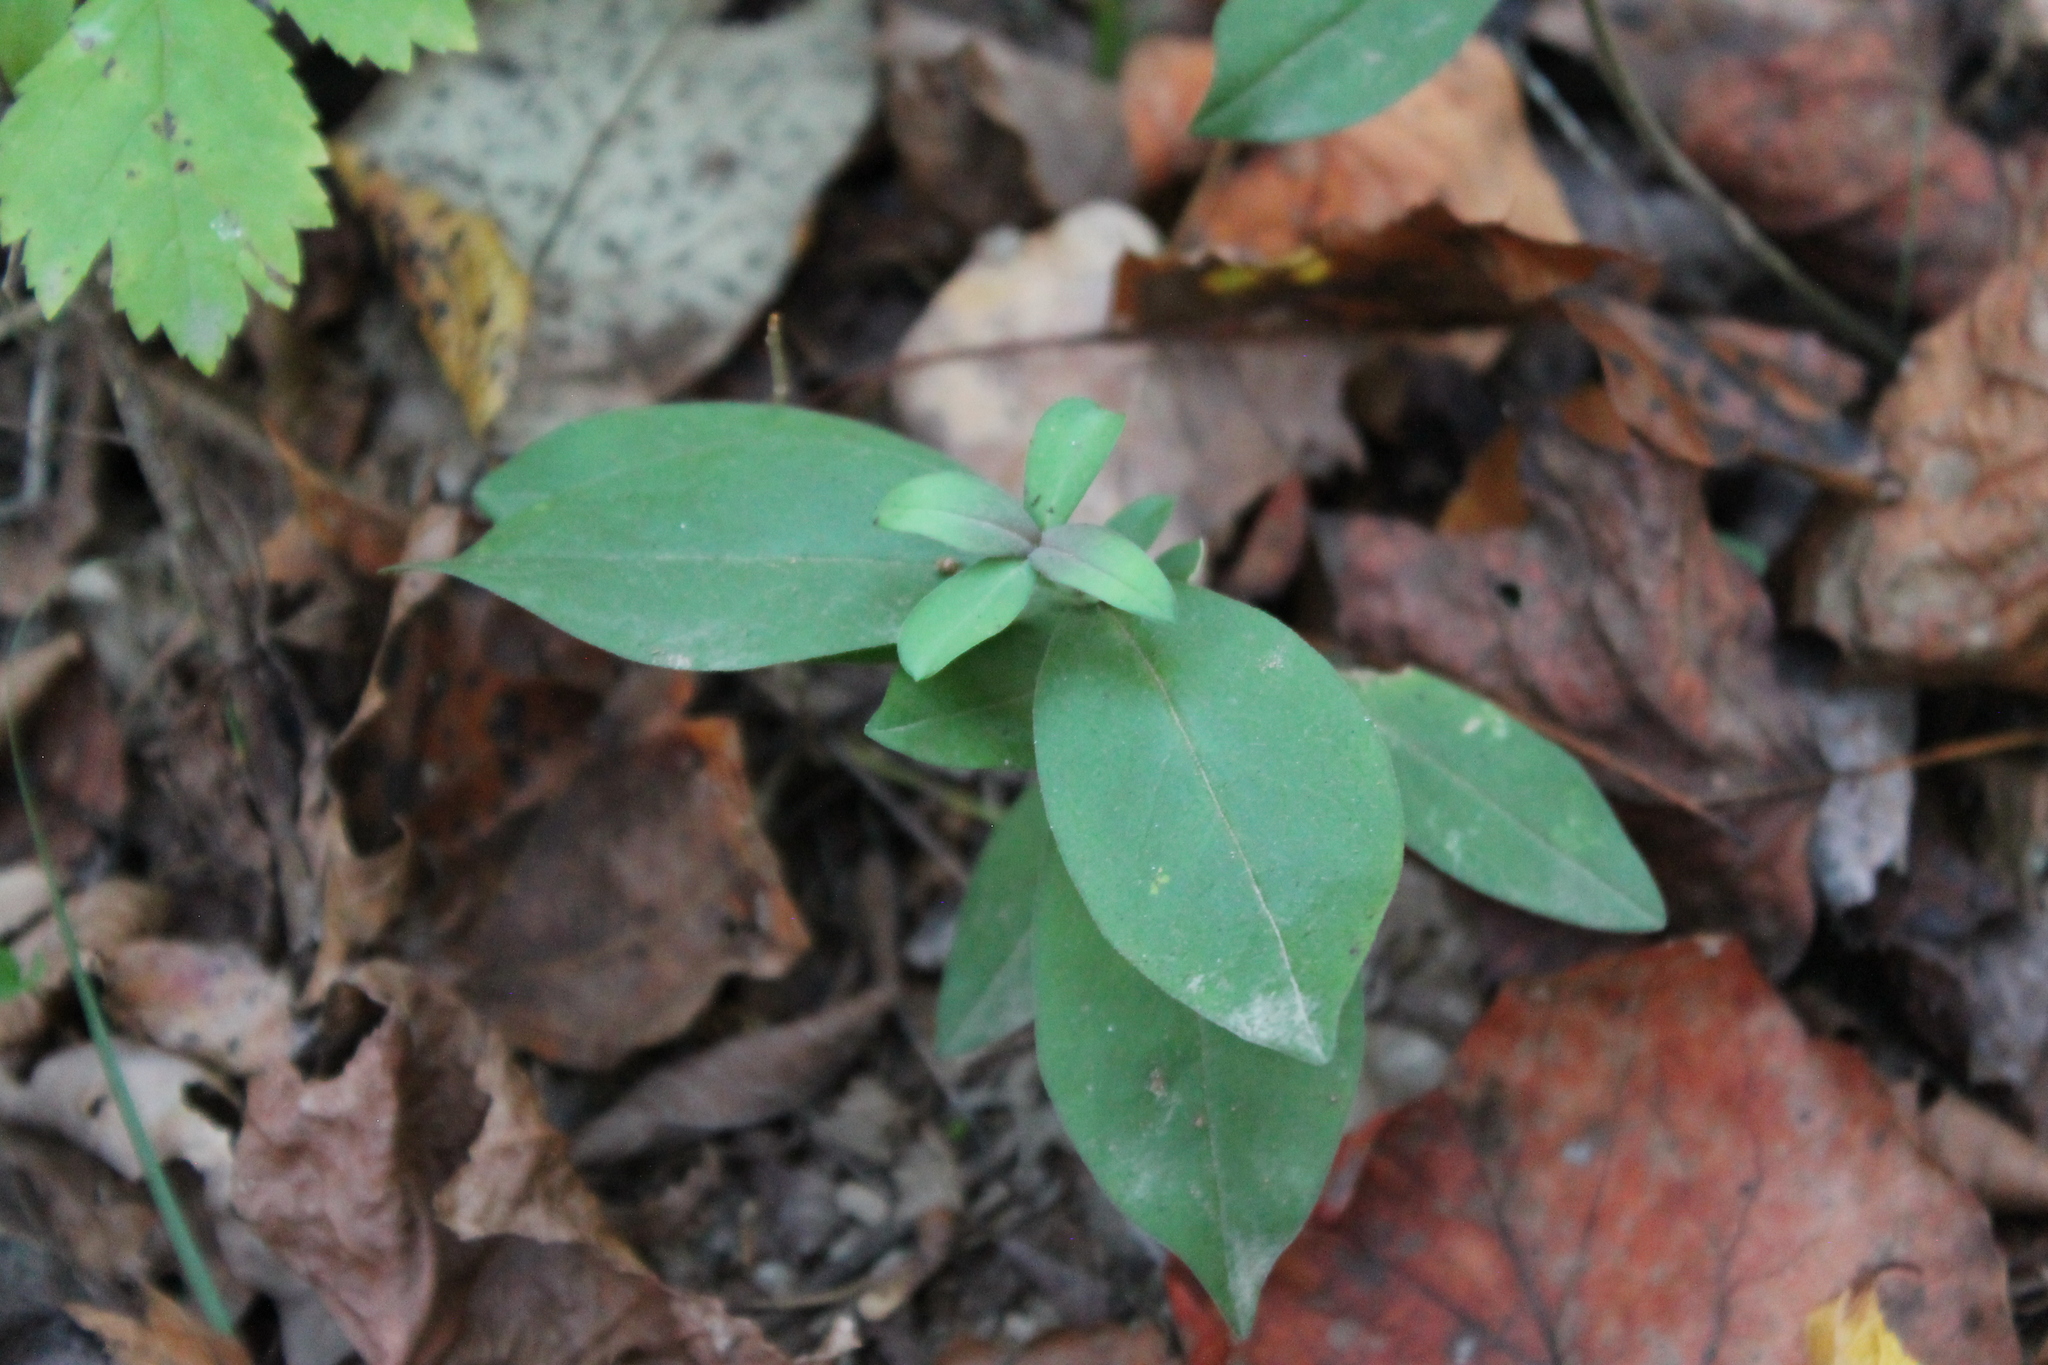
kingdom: Plantae
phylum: Tracheophyta
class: Magnoliopsida
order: Gentianales
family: Gentianaceae
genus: Gentiana
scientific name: Gentiana villosa
